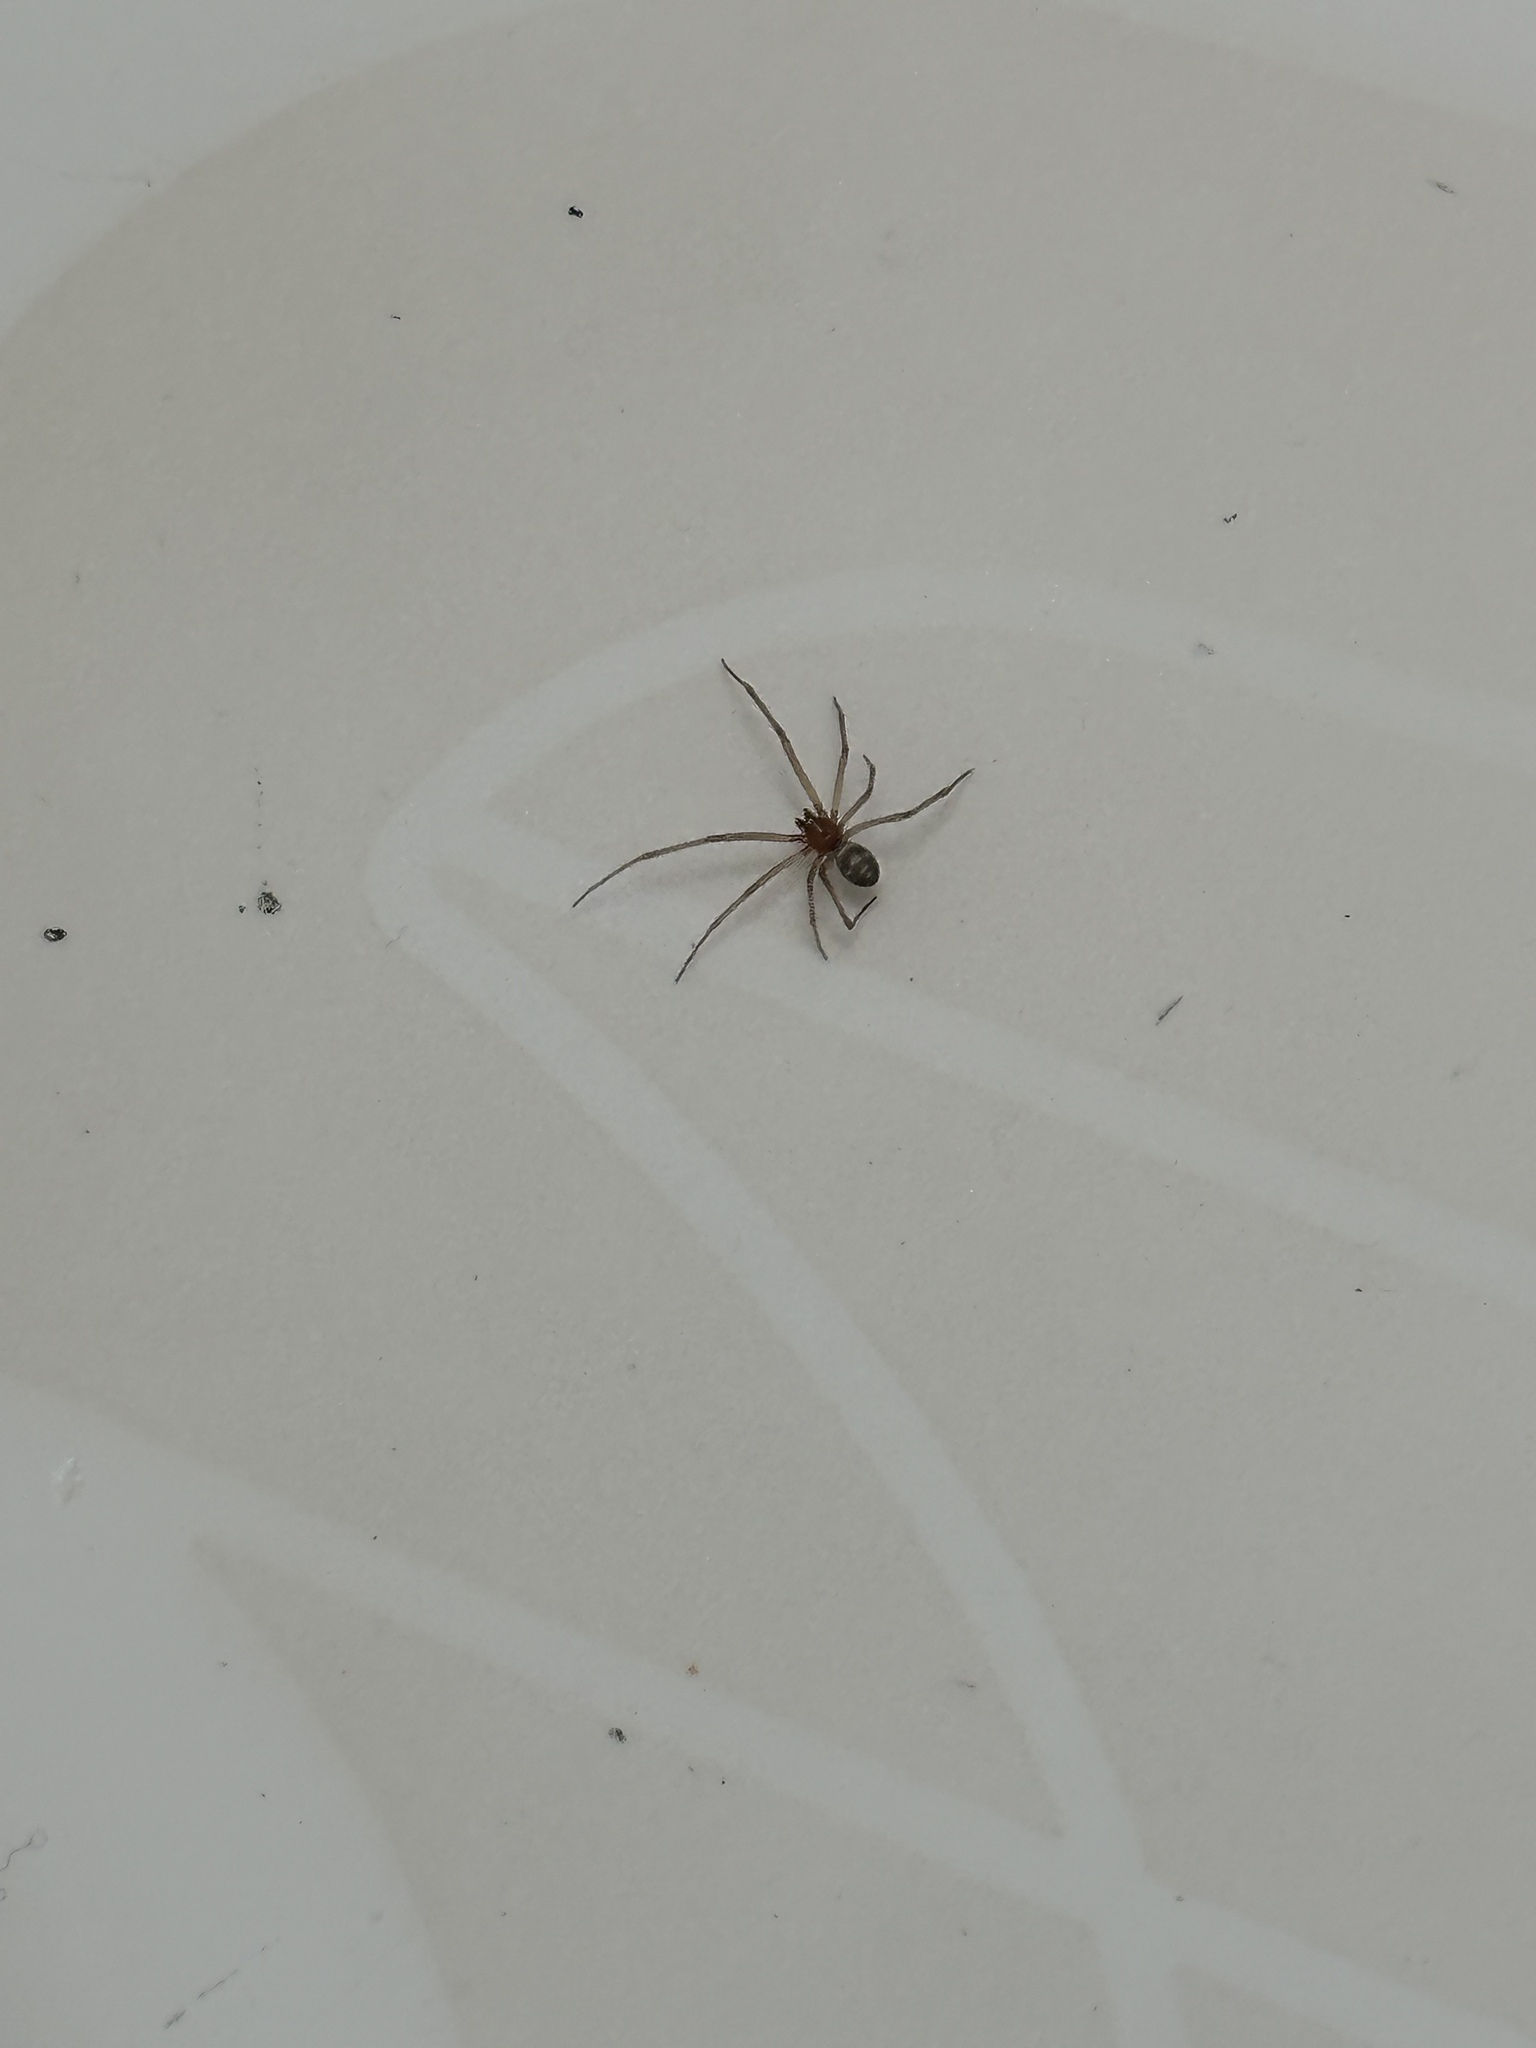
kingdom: Animalia
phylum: Arthropoda
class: Arachnida
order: Araneae
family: Theridiidae
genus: Steatoda
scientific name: Steatoda grossa
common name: False black widow
